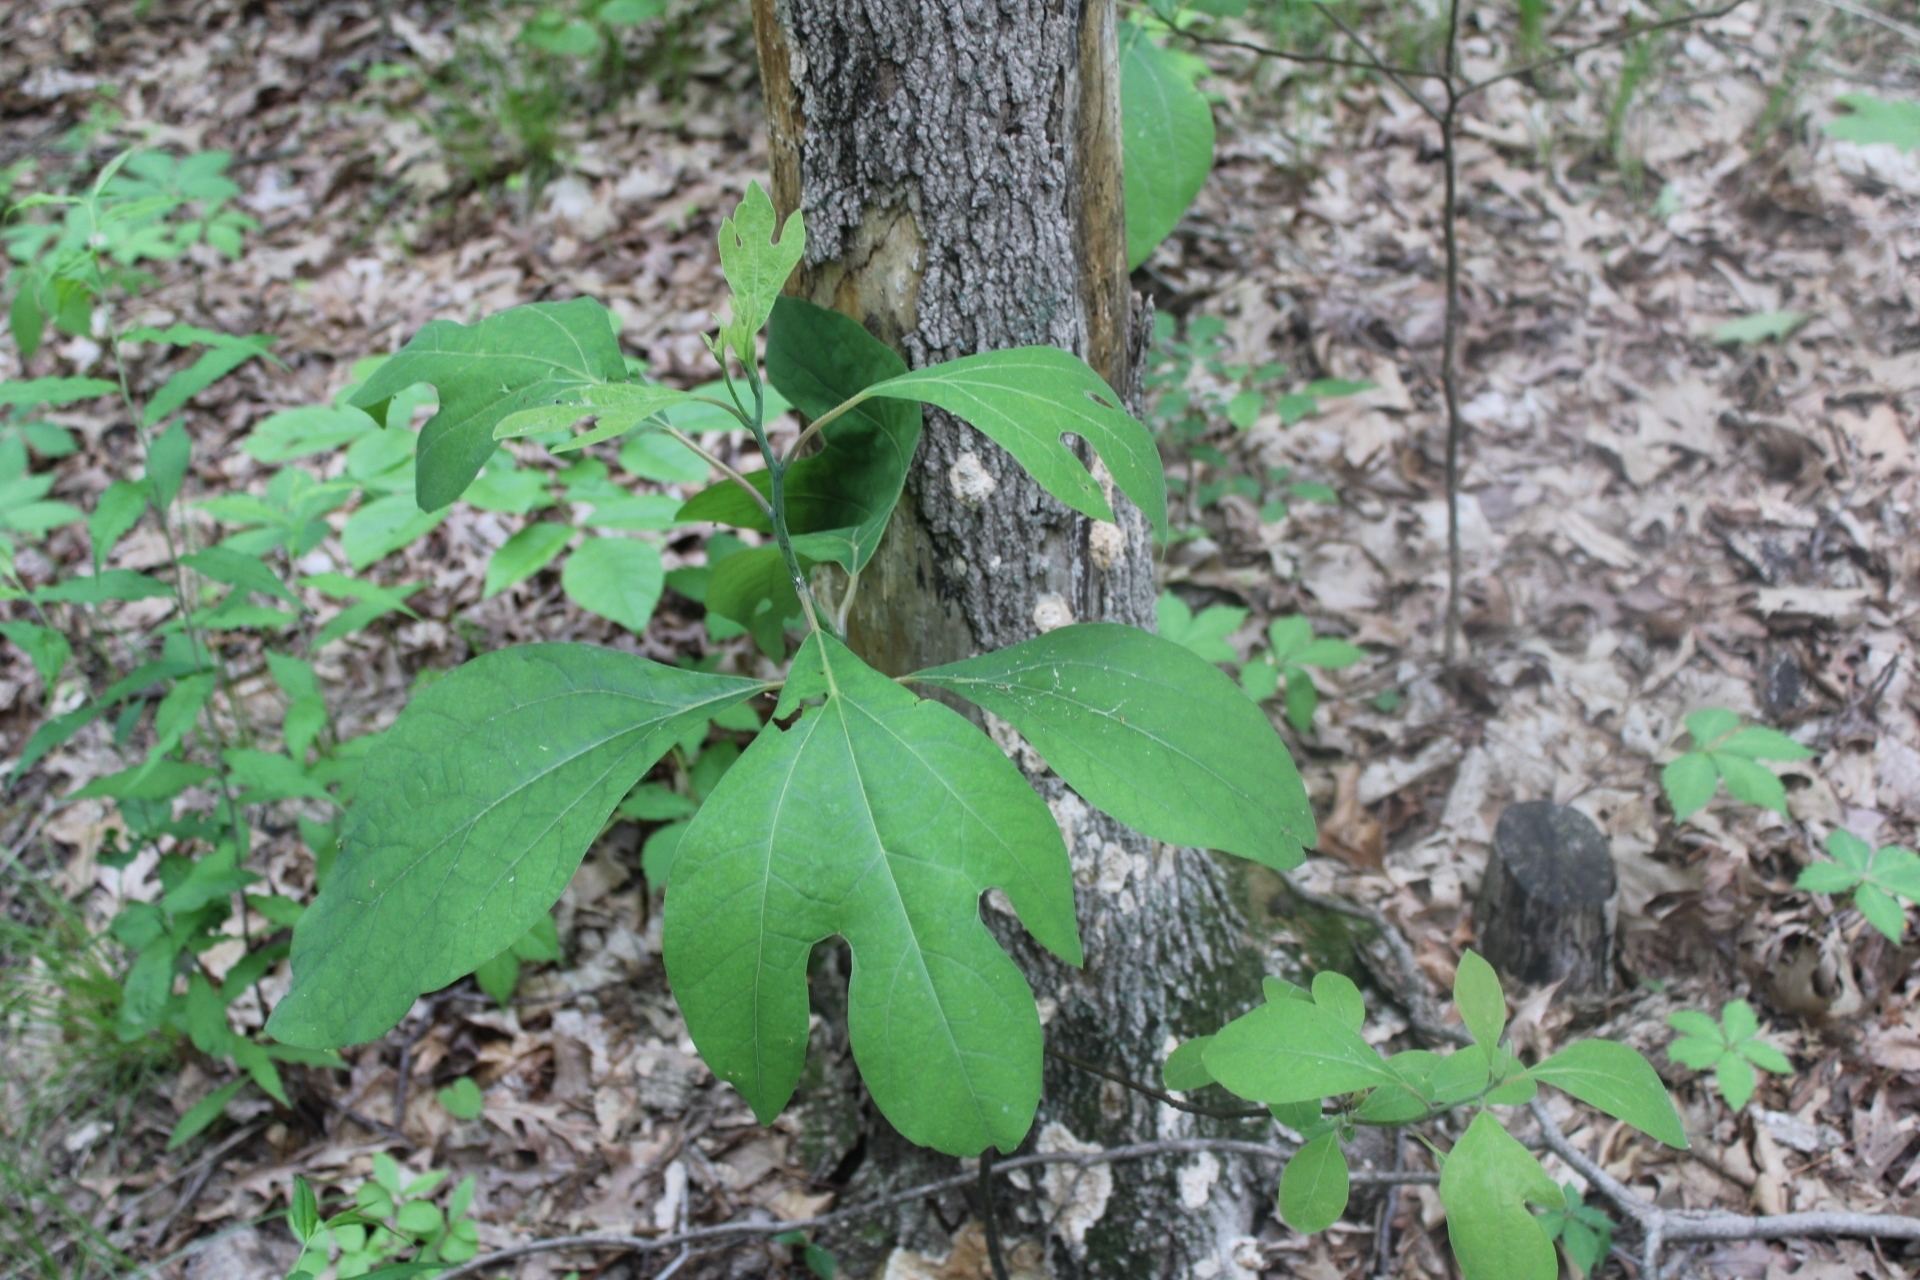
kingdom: Plantae
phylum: Tracheophyta
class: Magnoliopsida
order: Laurales
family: Lauraceae
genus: Sassafras
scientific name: Sassafras albidum
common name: Sassafras
